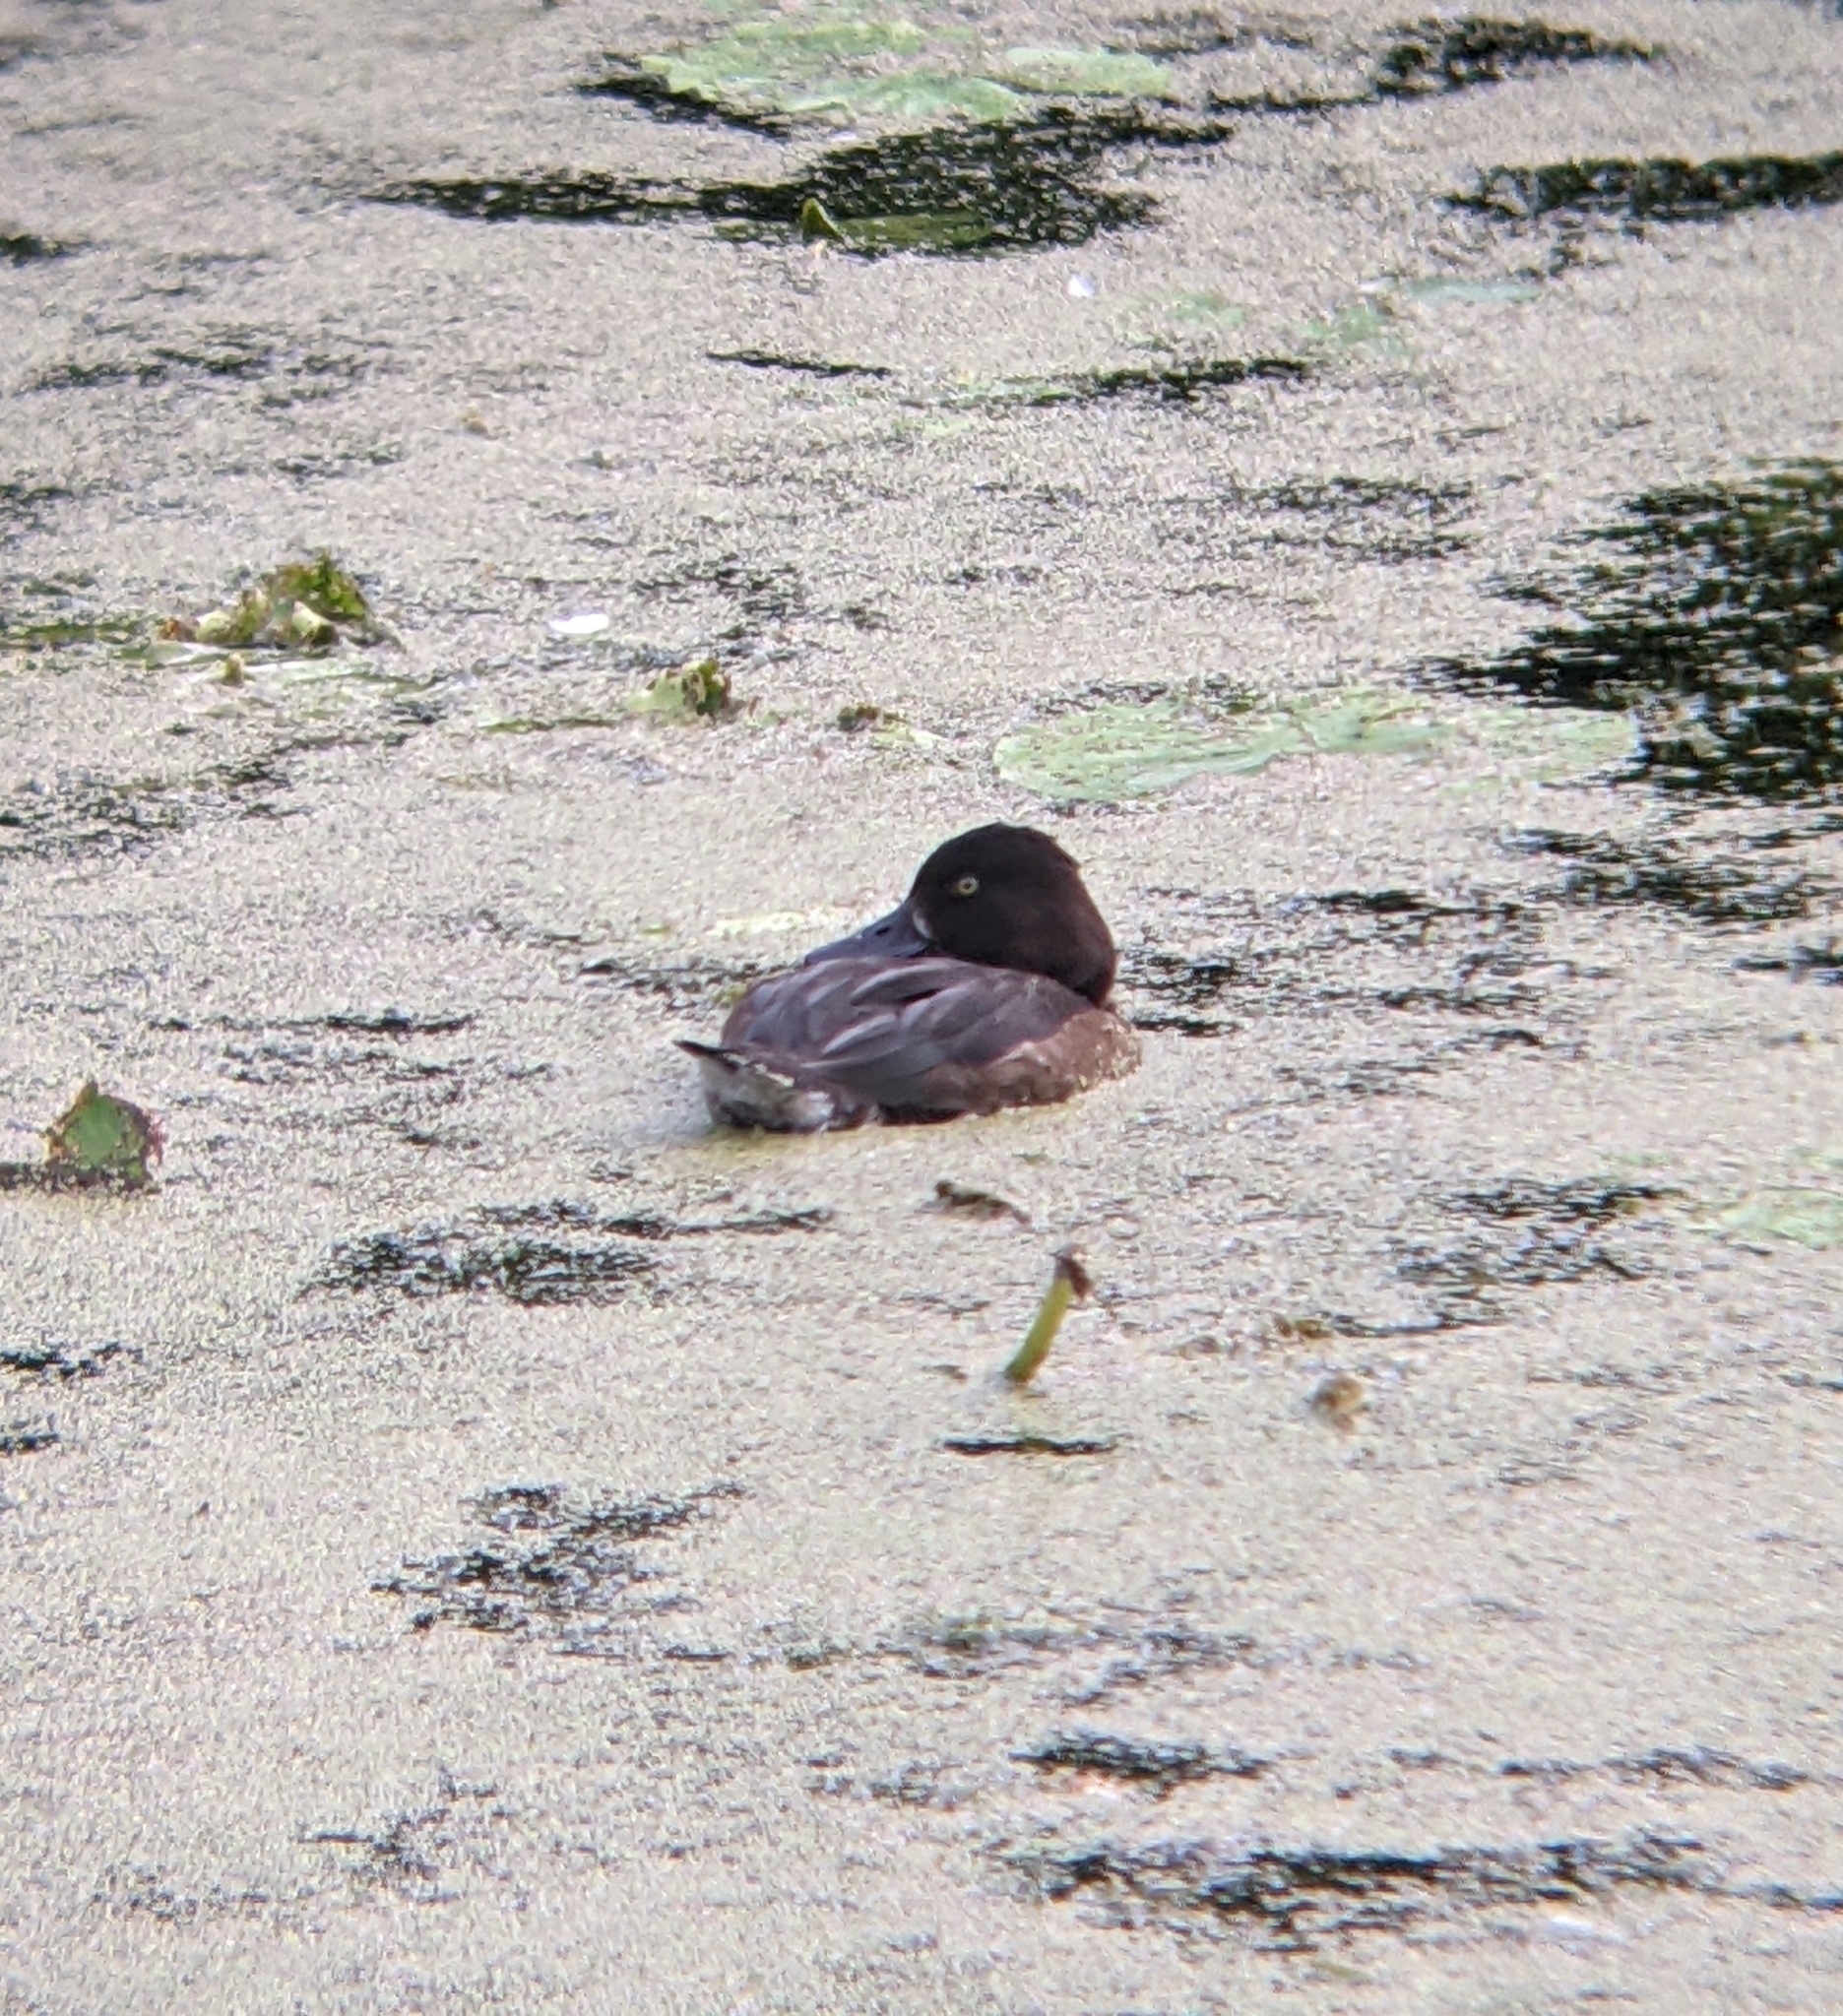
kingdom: Animalia
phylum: Chordata
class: Aves
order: Anseriformes
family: Anatidae
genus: Aythya
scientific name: Aythya fuligula
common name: Tufted duck
